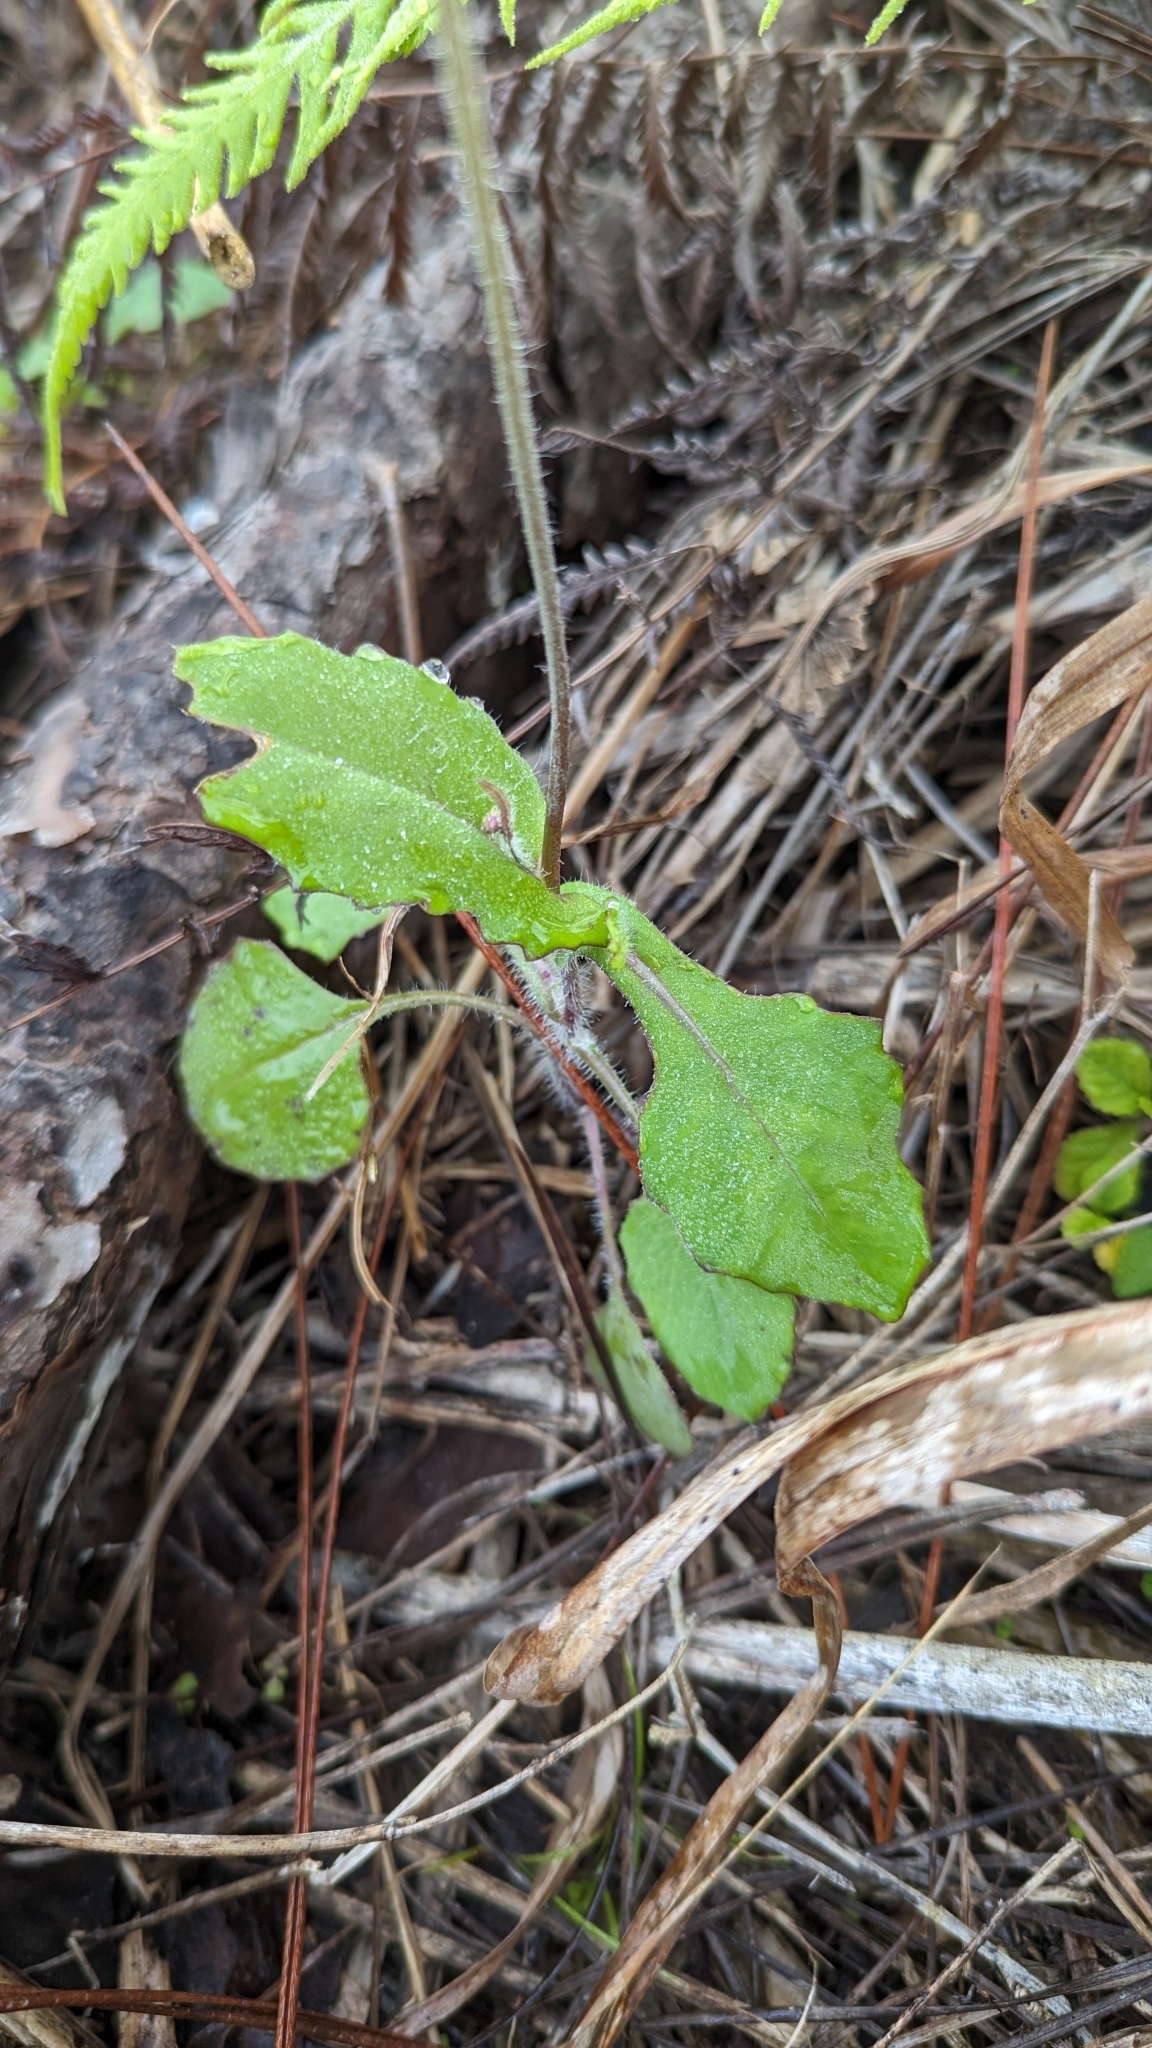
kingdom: Plantae
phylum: Tracheophyta
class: Magnoliopsida
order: Asterales
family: Asteraceae
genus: Emilia
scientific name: Emilia fosbergii
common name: Florida tasselflower
